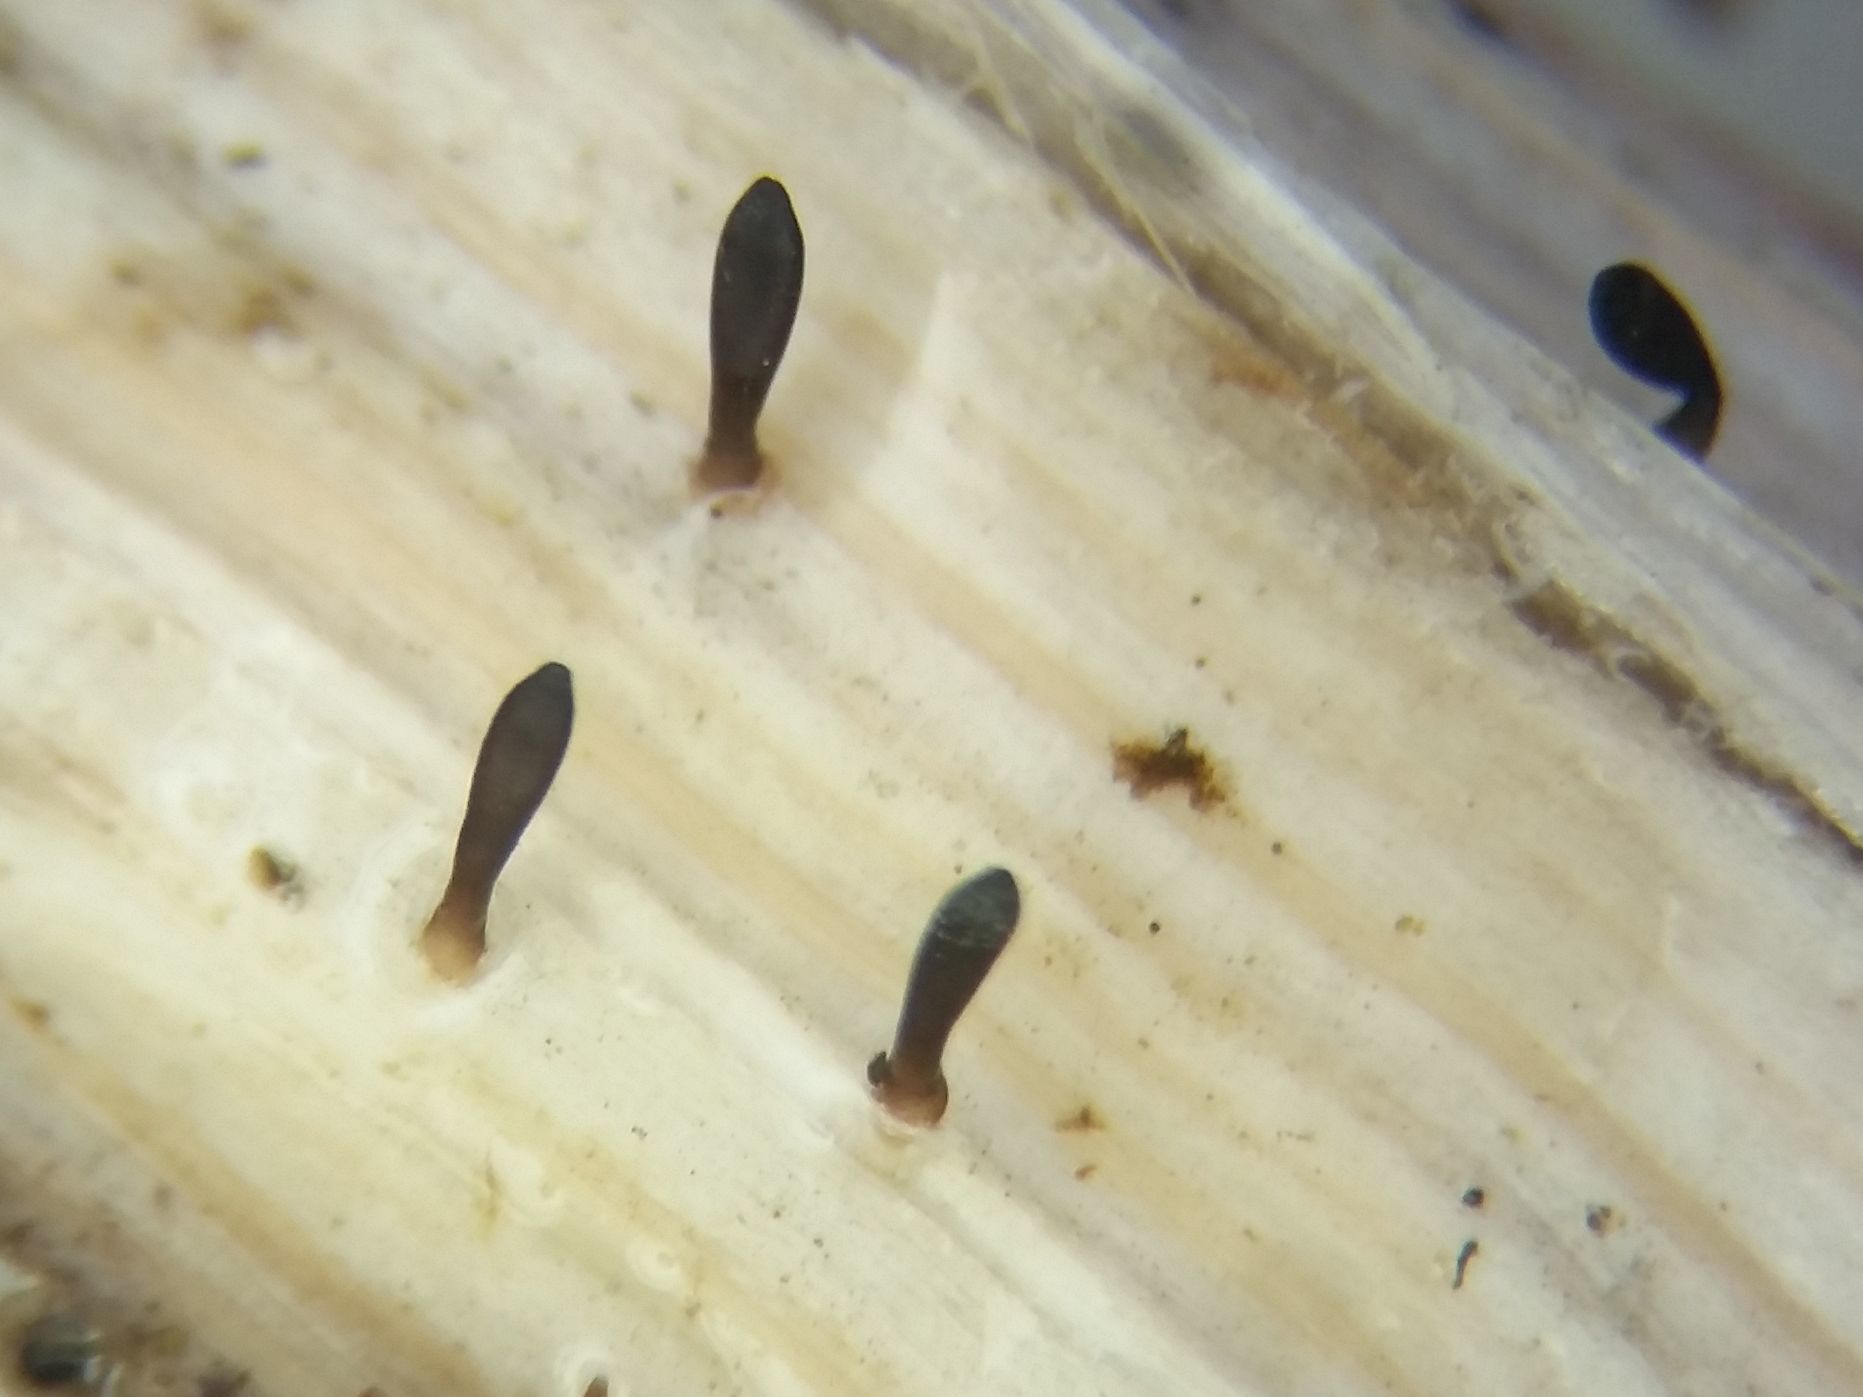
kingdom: Fungi
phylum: Ascomycota
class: Dothideomycetes
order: Acrospermales
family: Acrospermaceae
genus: Acrospermum
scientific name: Acrospermum compressum
